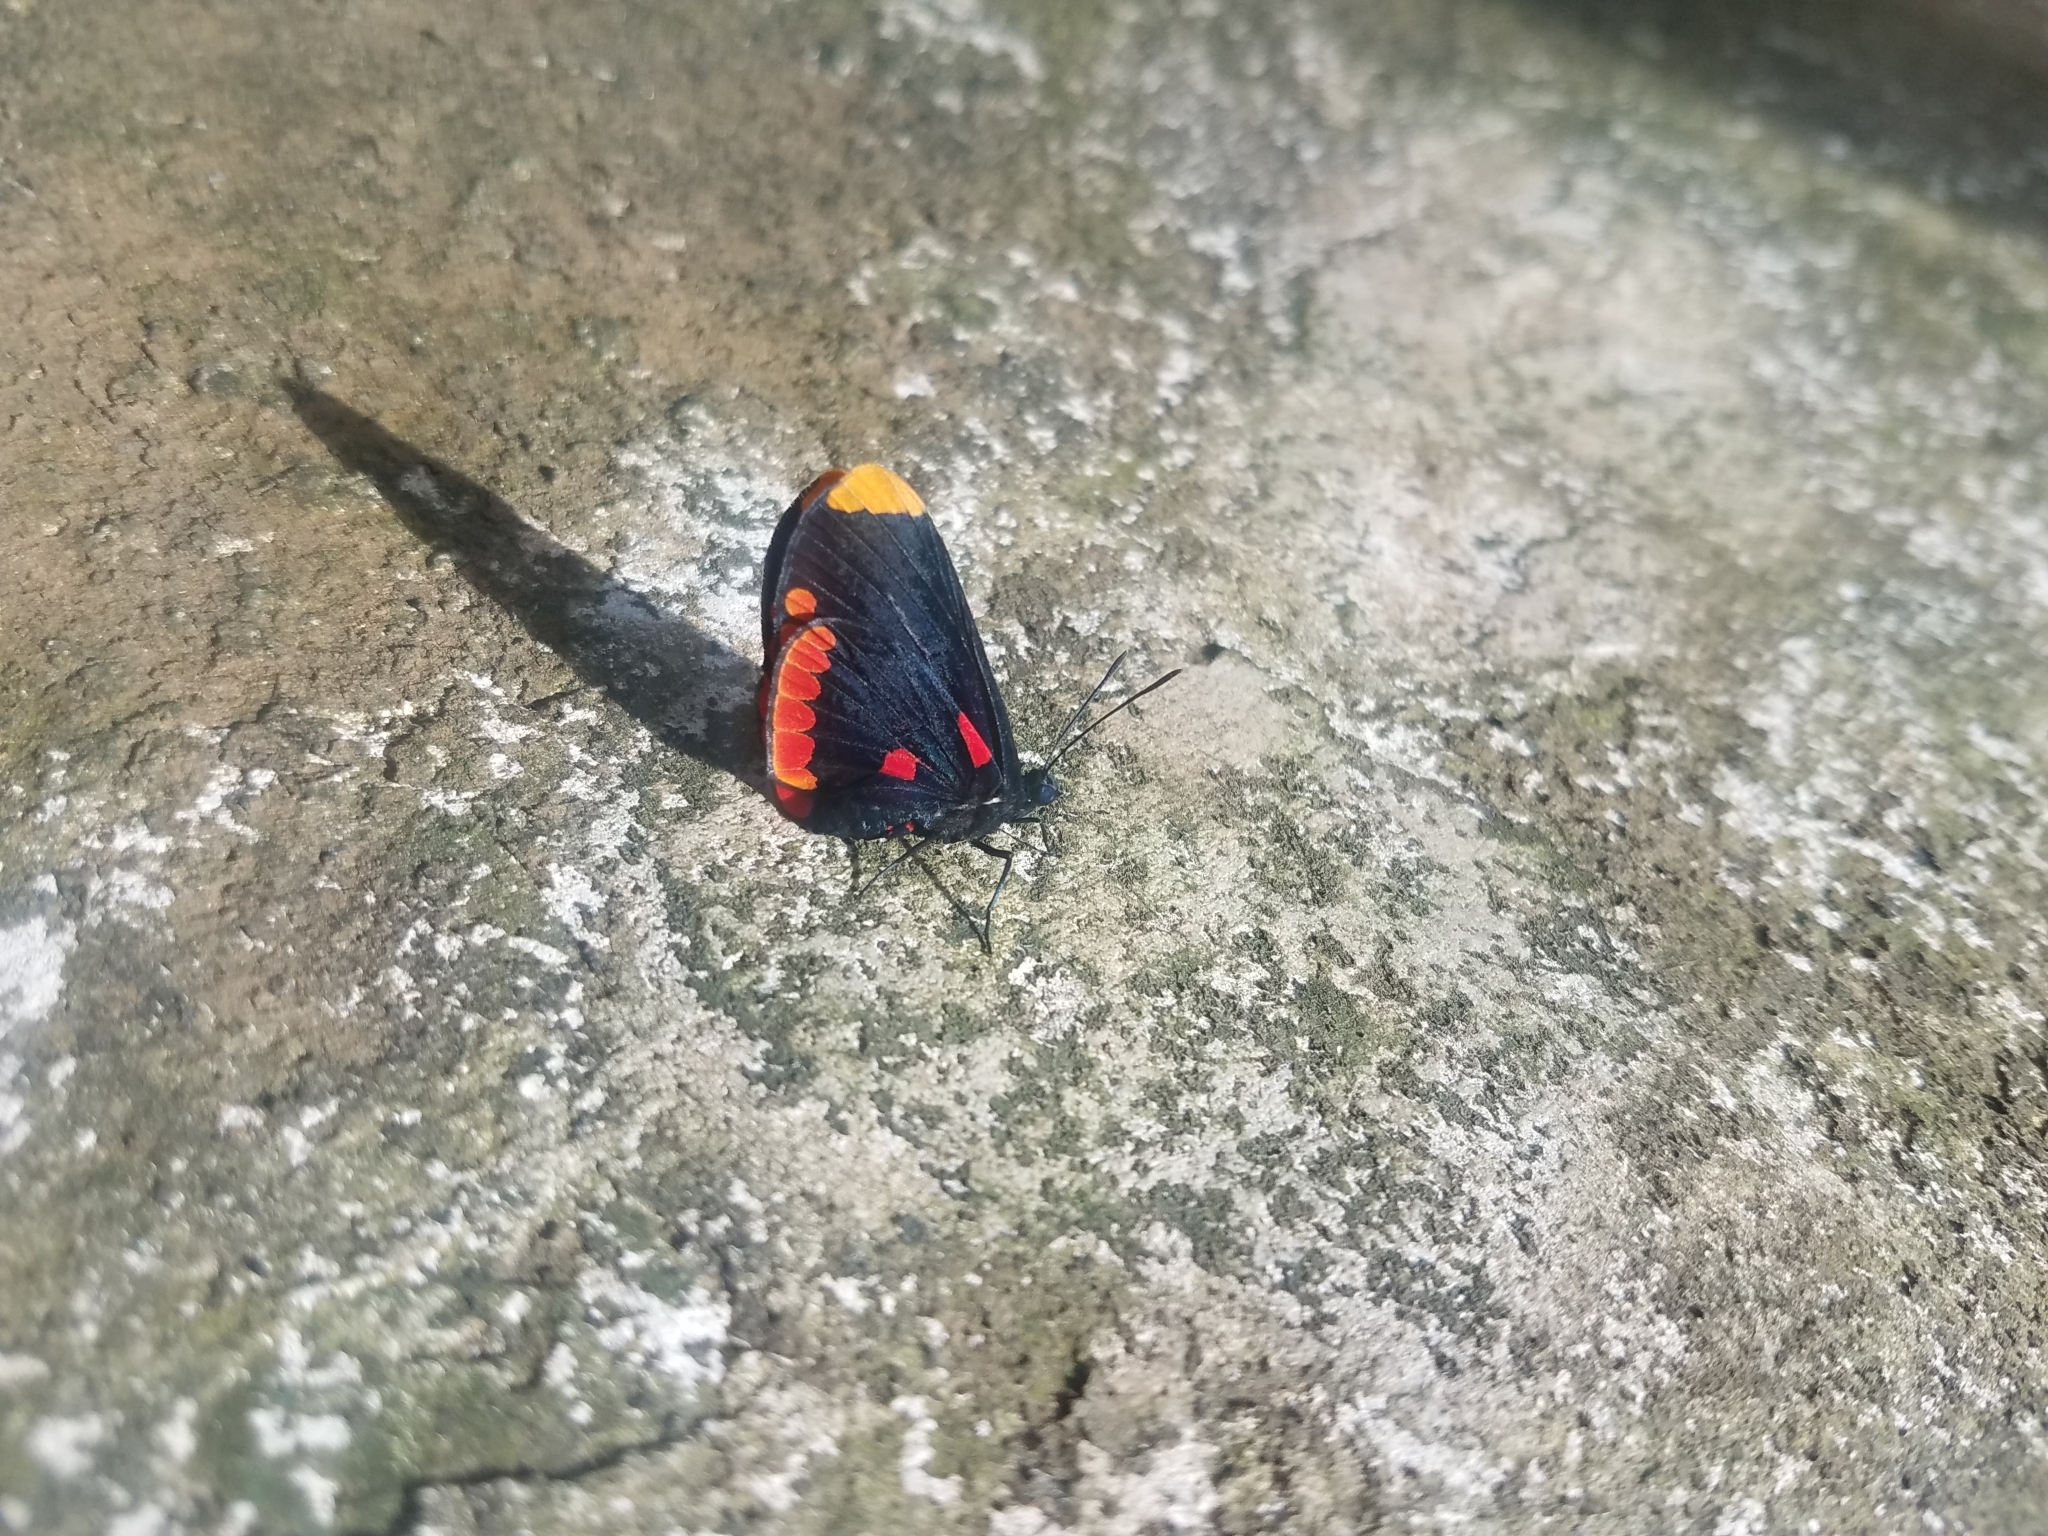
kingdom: Animalia
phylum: Arthropoda
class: Insecta
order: Lepidoptera
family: Lycaenidae
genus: Melanis
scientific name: Melanis pixe
